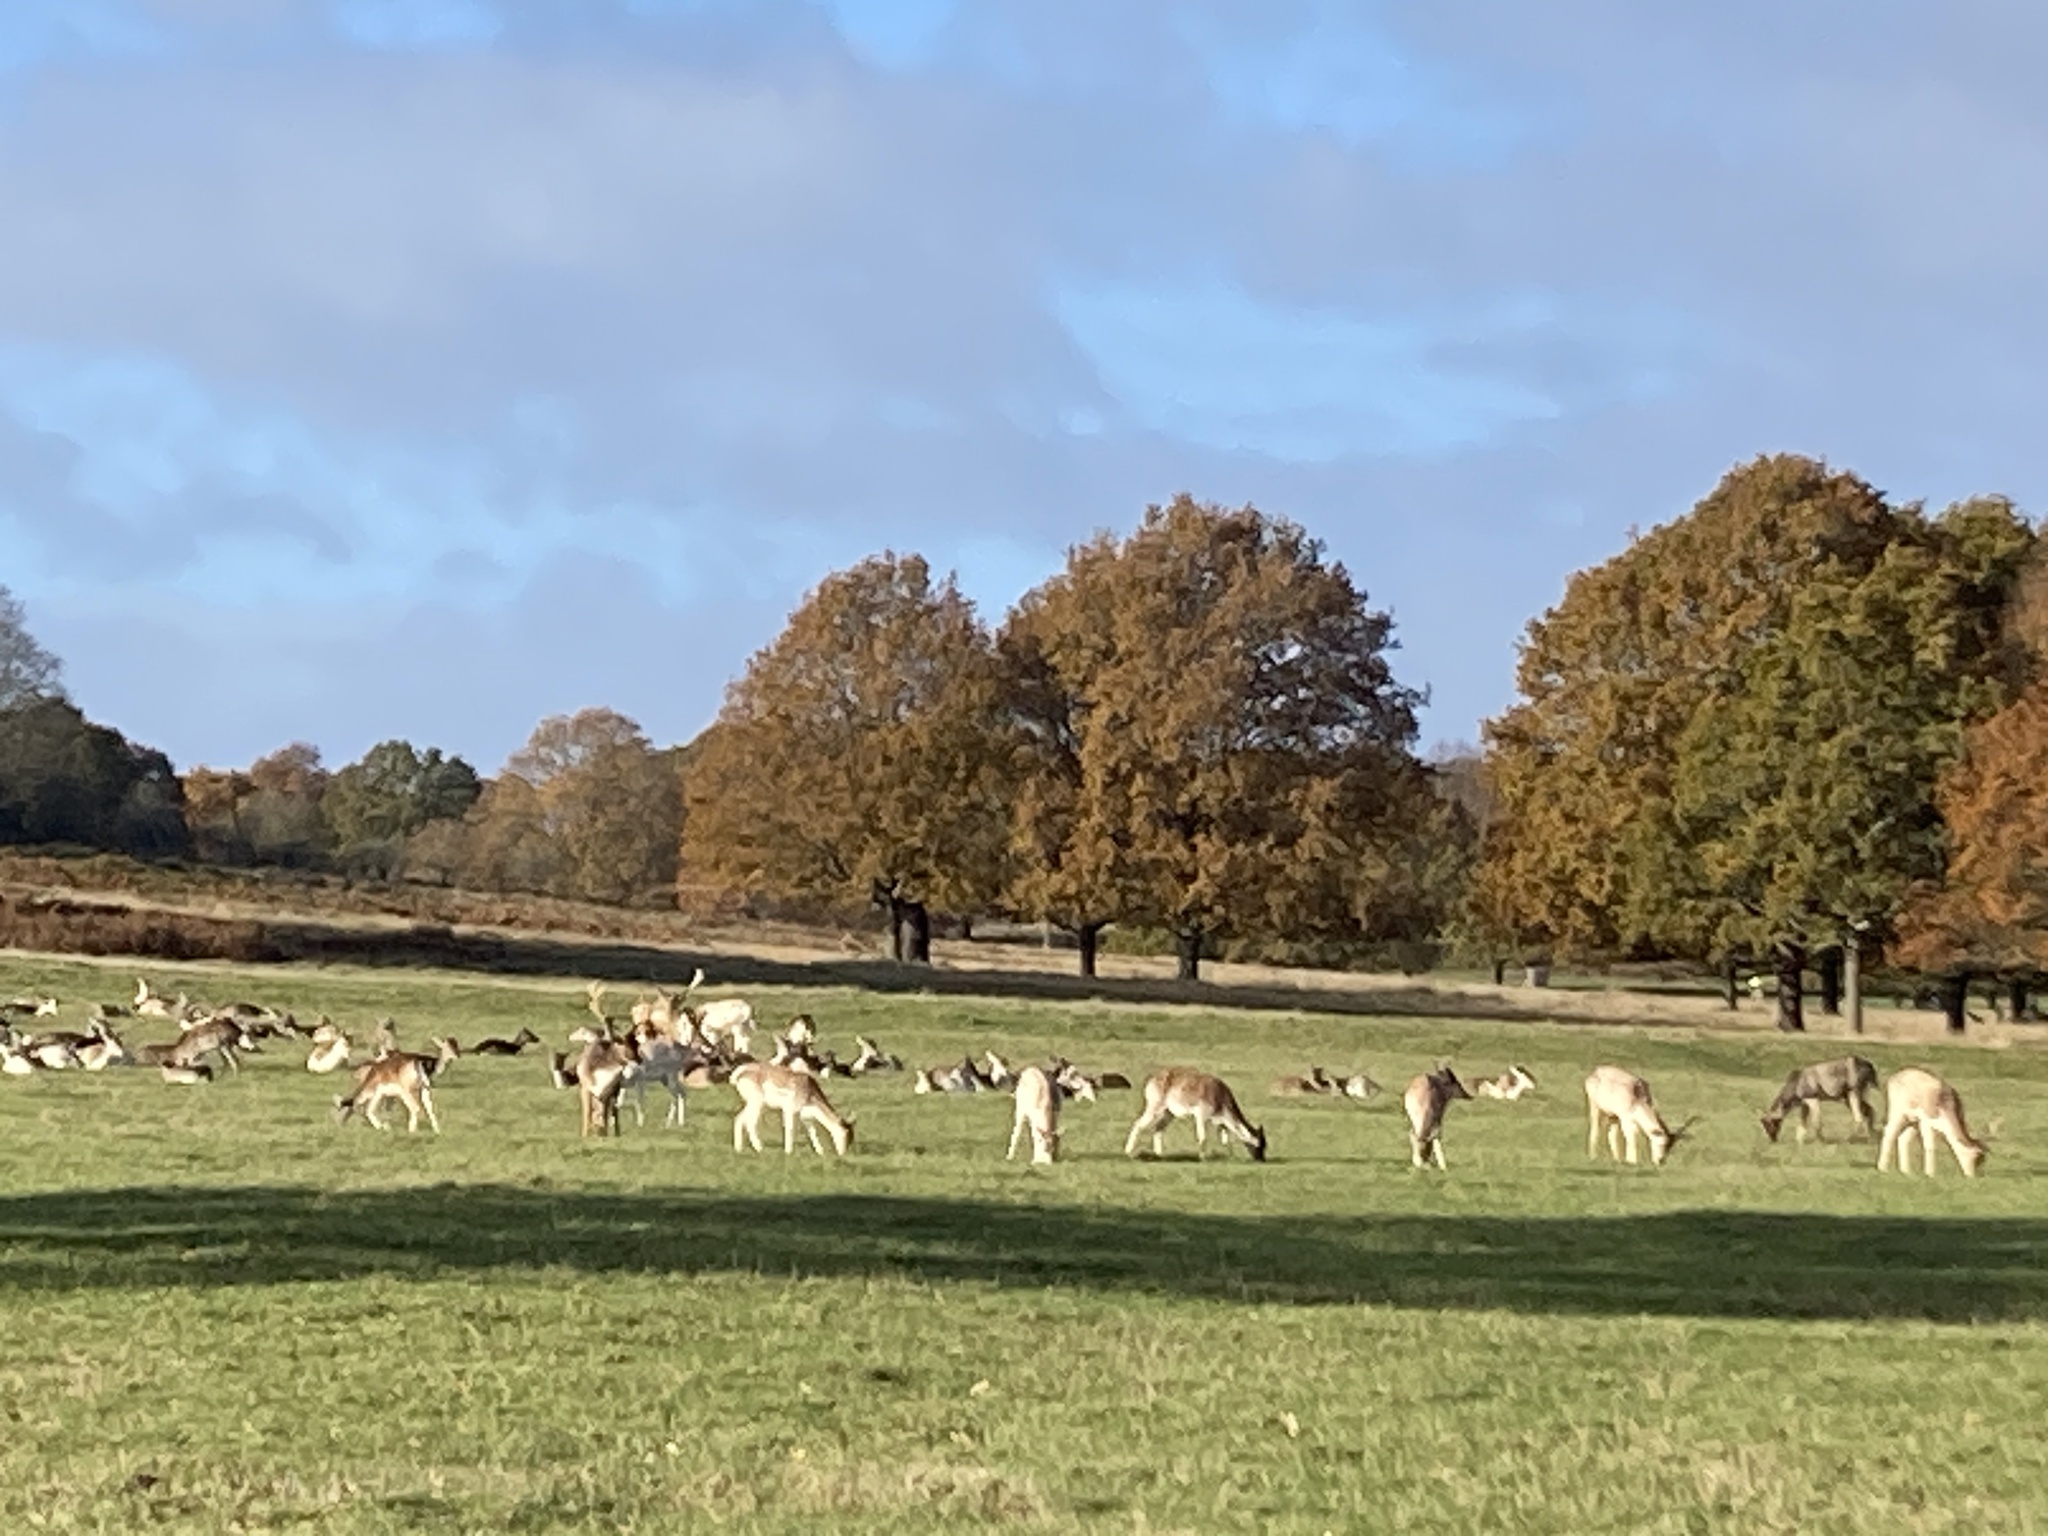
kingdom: Animalia
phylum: Chordata
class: Mammalia
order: Artiodactyla
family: Cervidae
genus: Dama
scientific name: Dama dama
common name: Fallow deer
